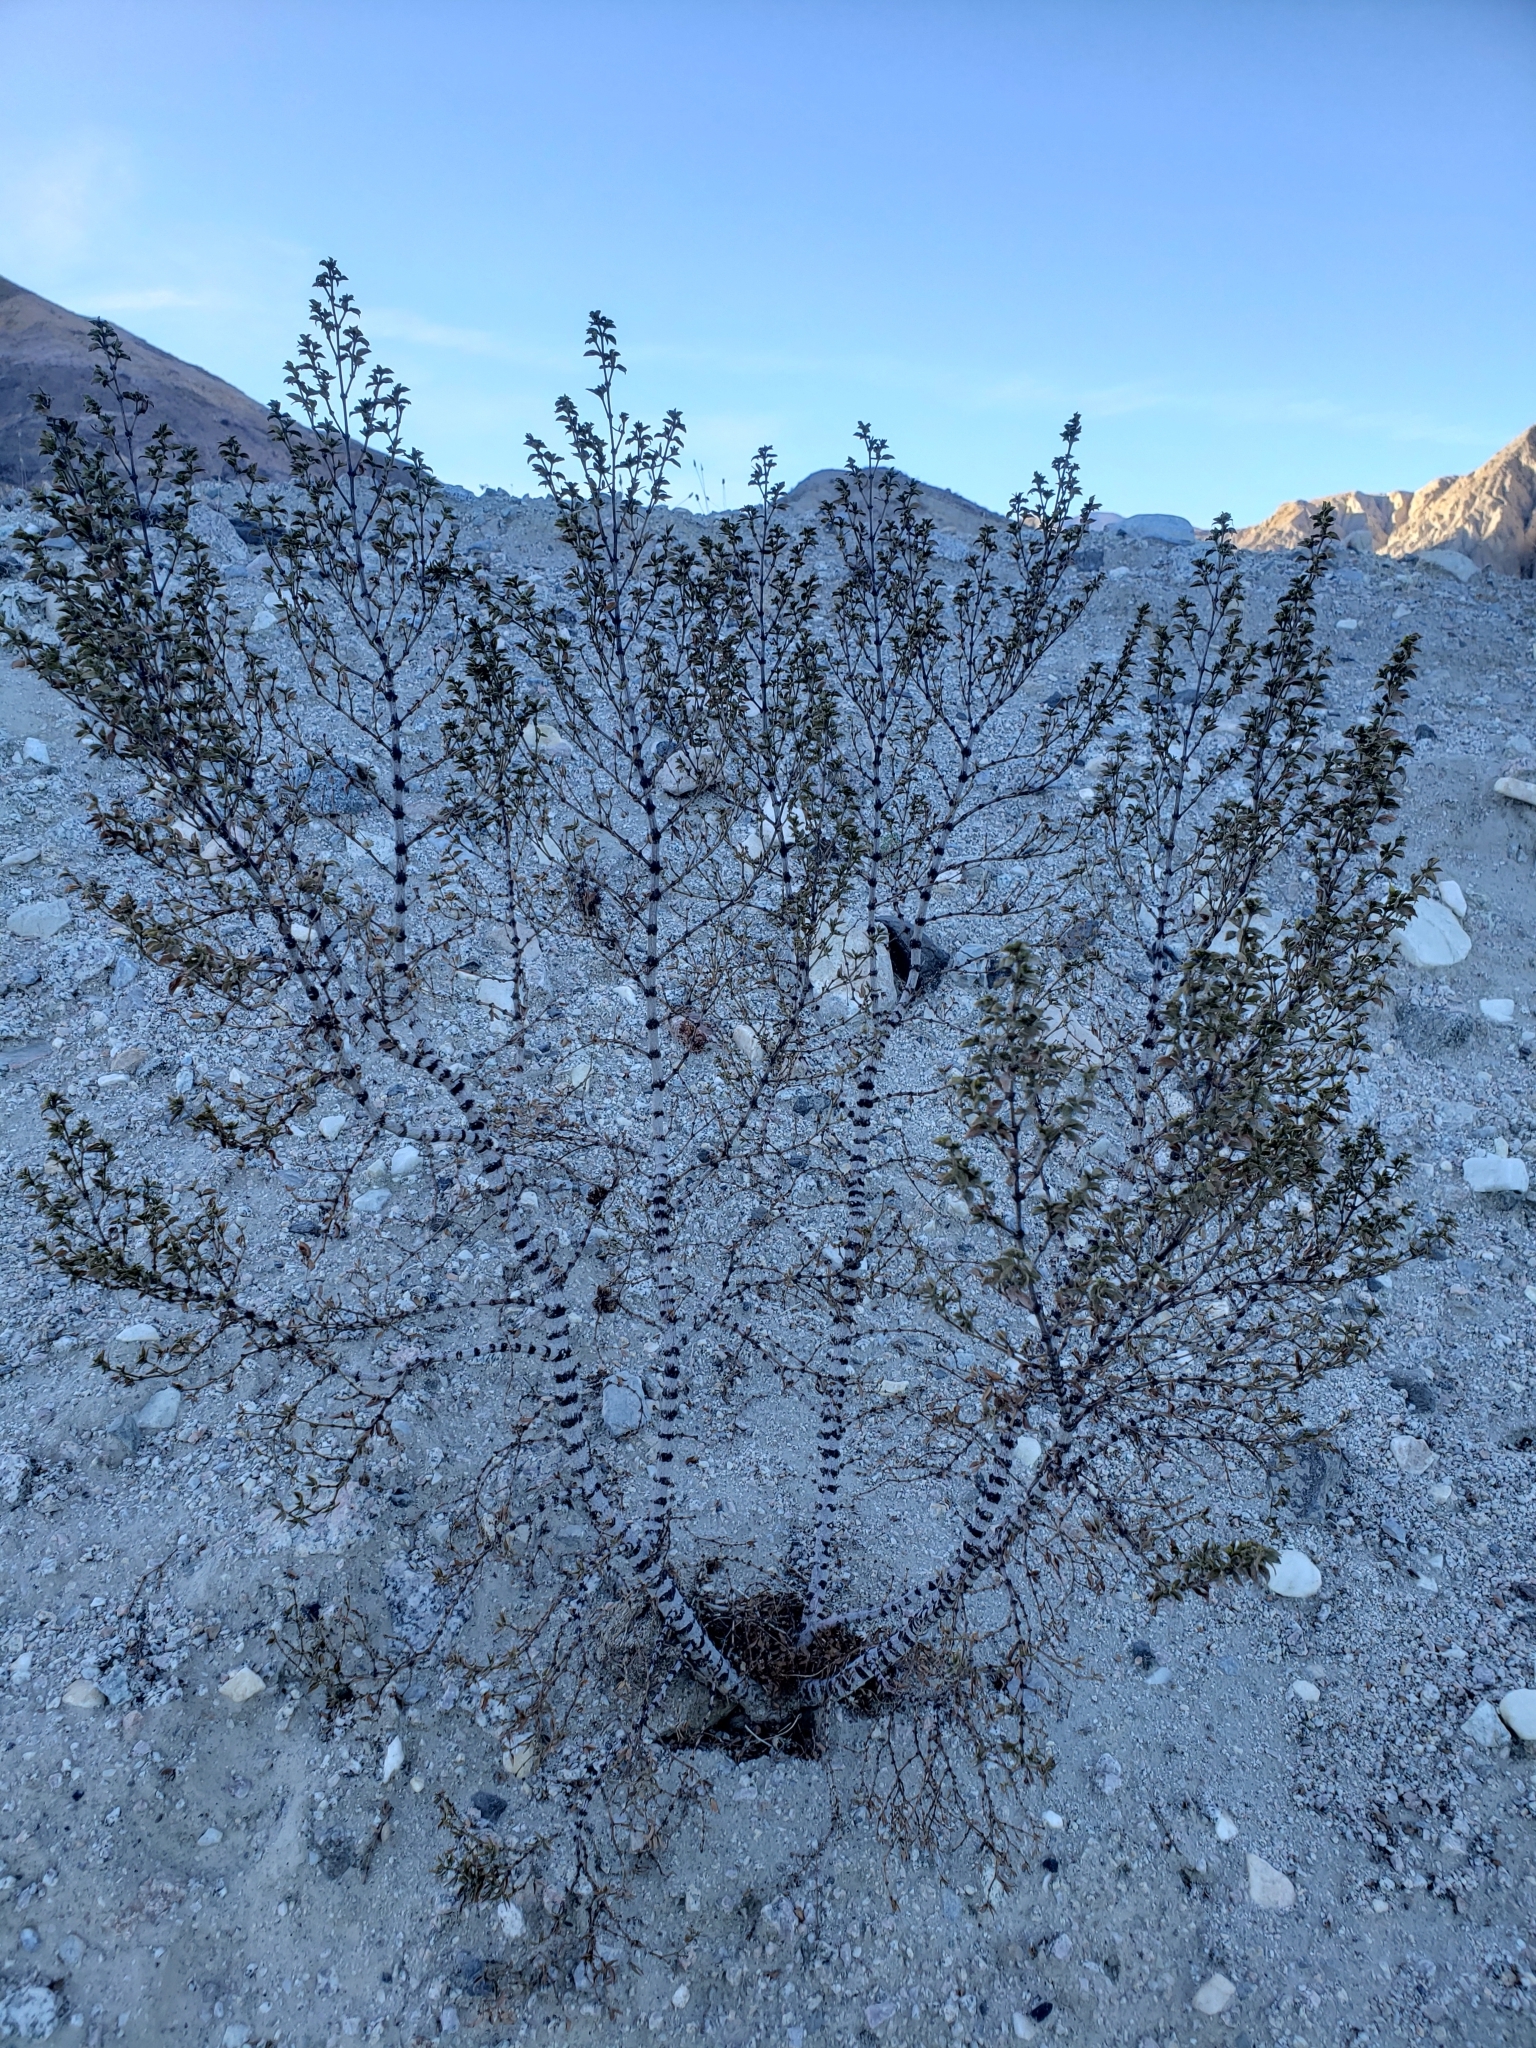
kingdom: Plantae
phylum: Tracheophyta
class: Magnoliopsida
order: Zygophyllales
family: Zygophyllaceae
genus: Larrea
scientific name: Larrea tridentata
